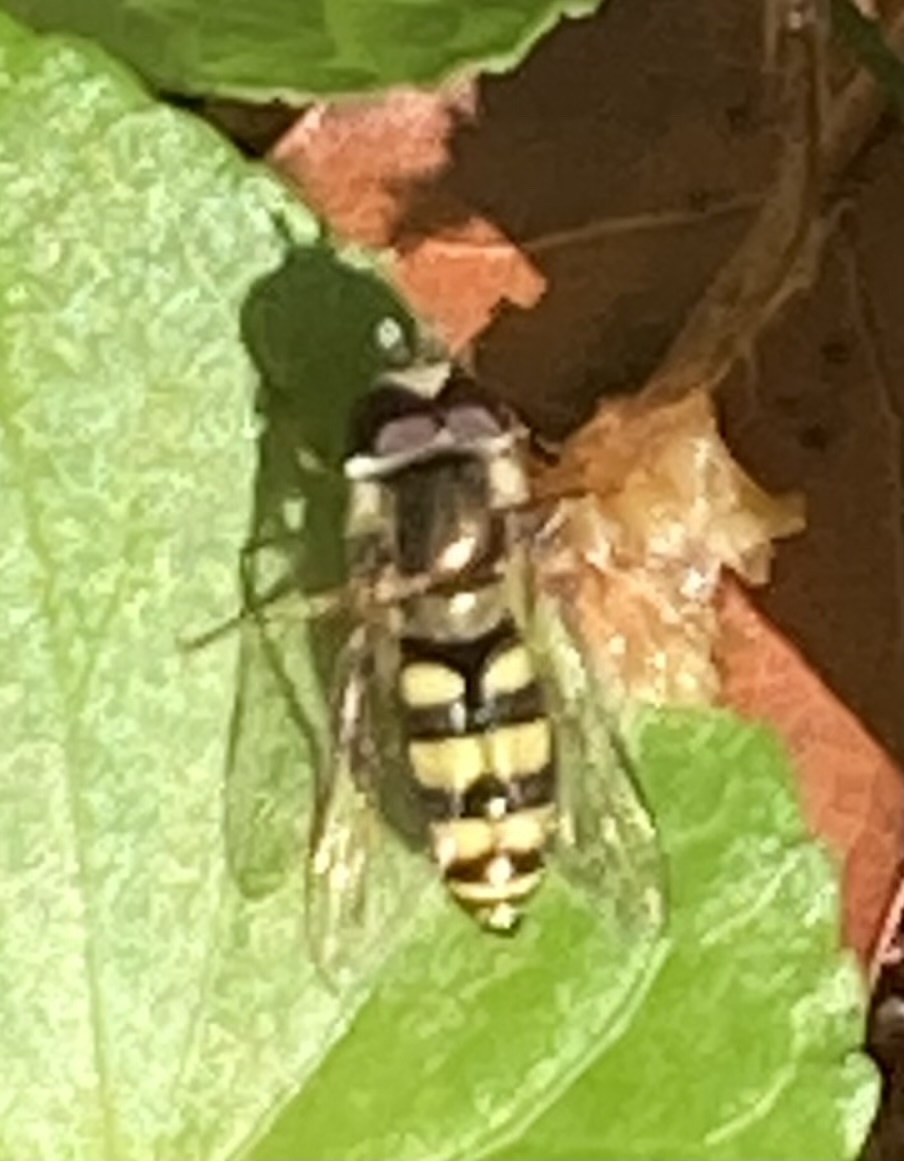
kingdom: Animalia
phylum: Arthropoda
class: Insecta
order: Diptera
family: Syrphidae
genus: Eupeodes
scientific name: Eupeodes
